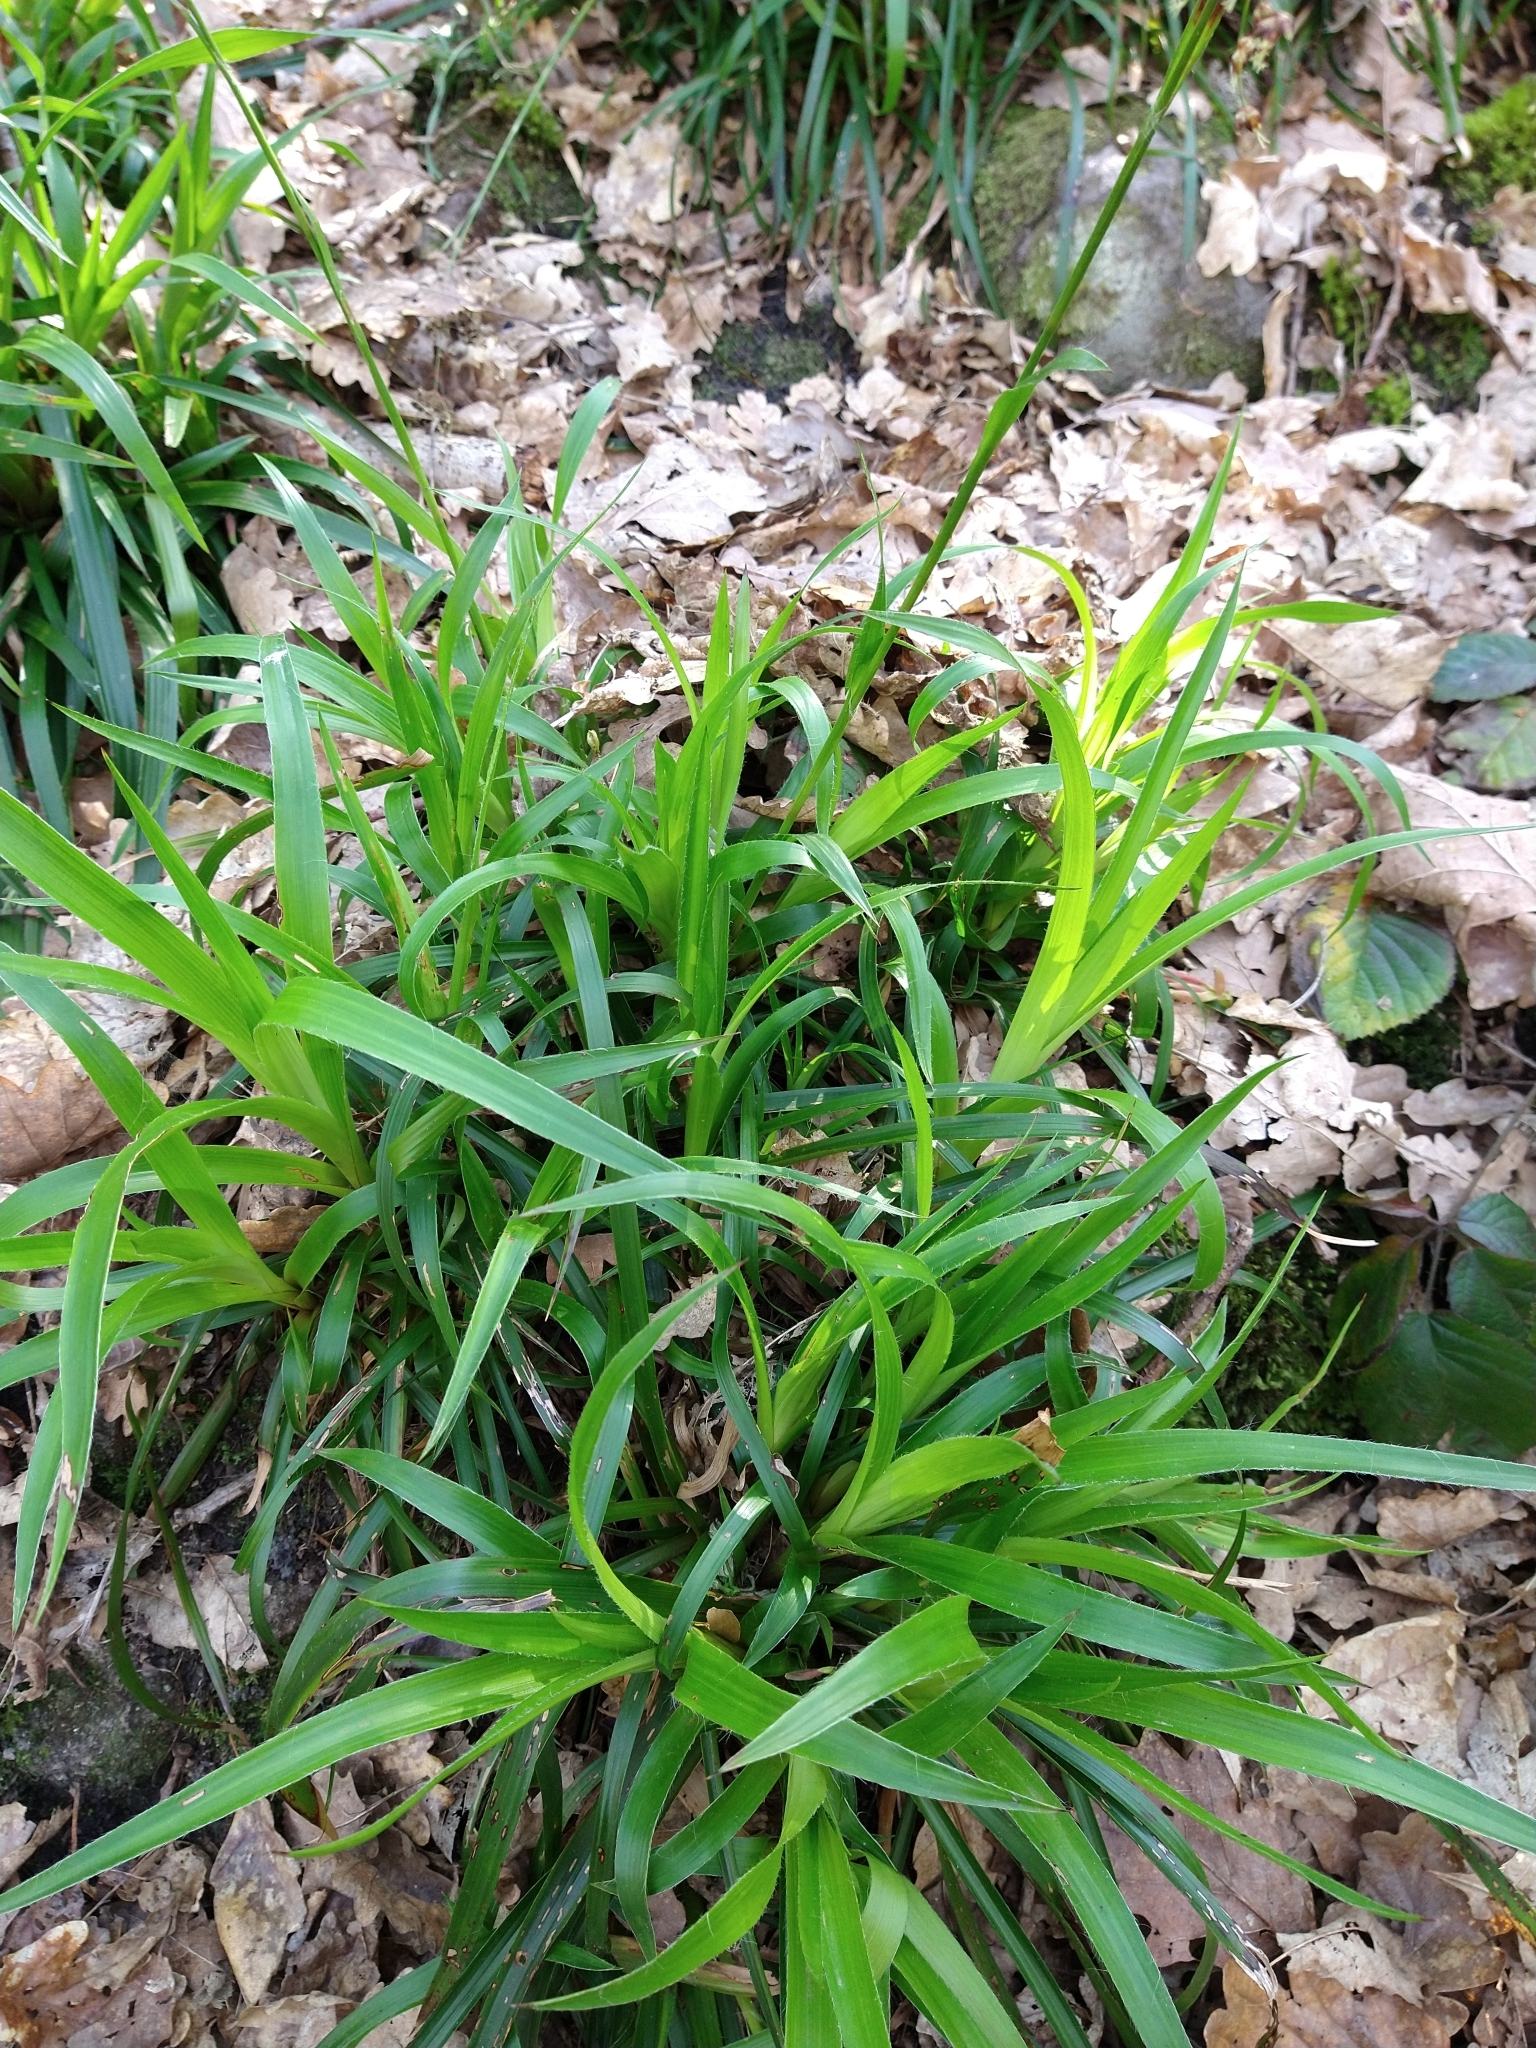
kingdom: Plantae
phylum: Tracheophyta
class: Liliopsida
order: Poales
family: Juncaceae
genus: Luzula
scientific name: Luzula sylvatica
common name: Great wood-rush
